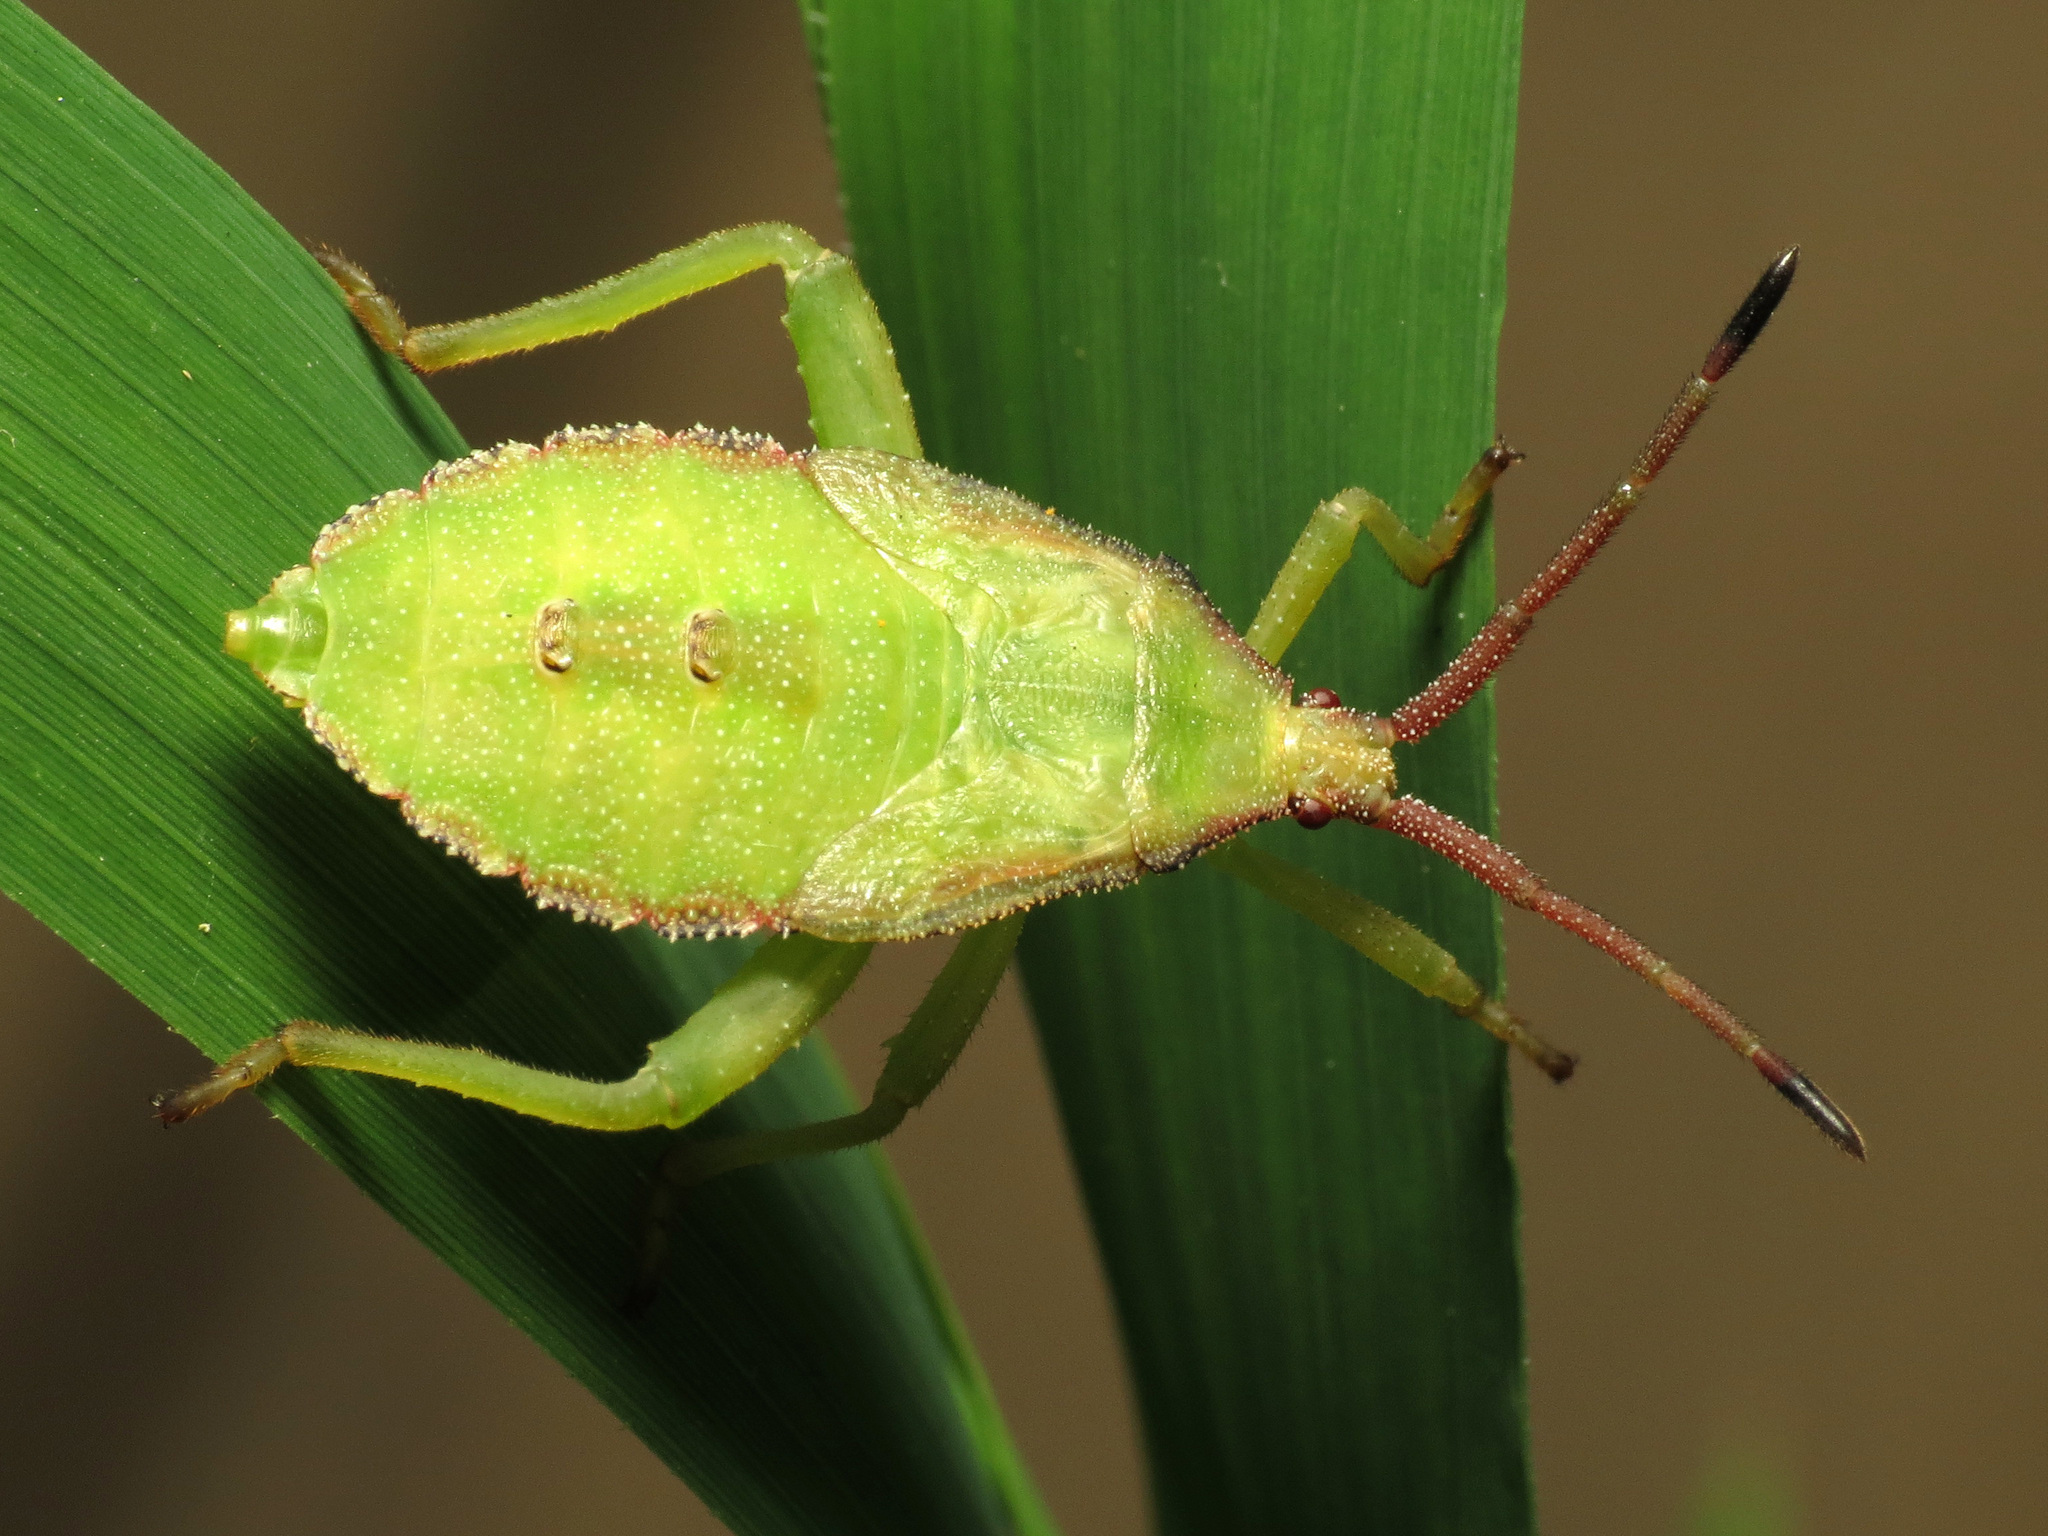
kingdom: Animalia
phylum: Arthropoda
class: Insecta
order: Hemiptera
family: Coreidae
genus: Piezogaster
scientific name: Piezogaster calcarator
